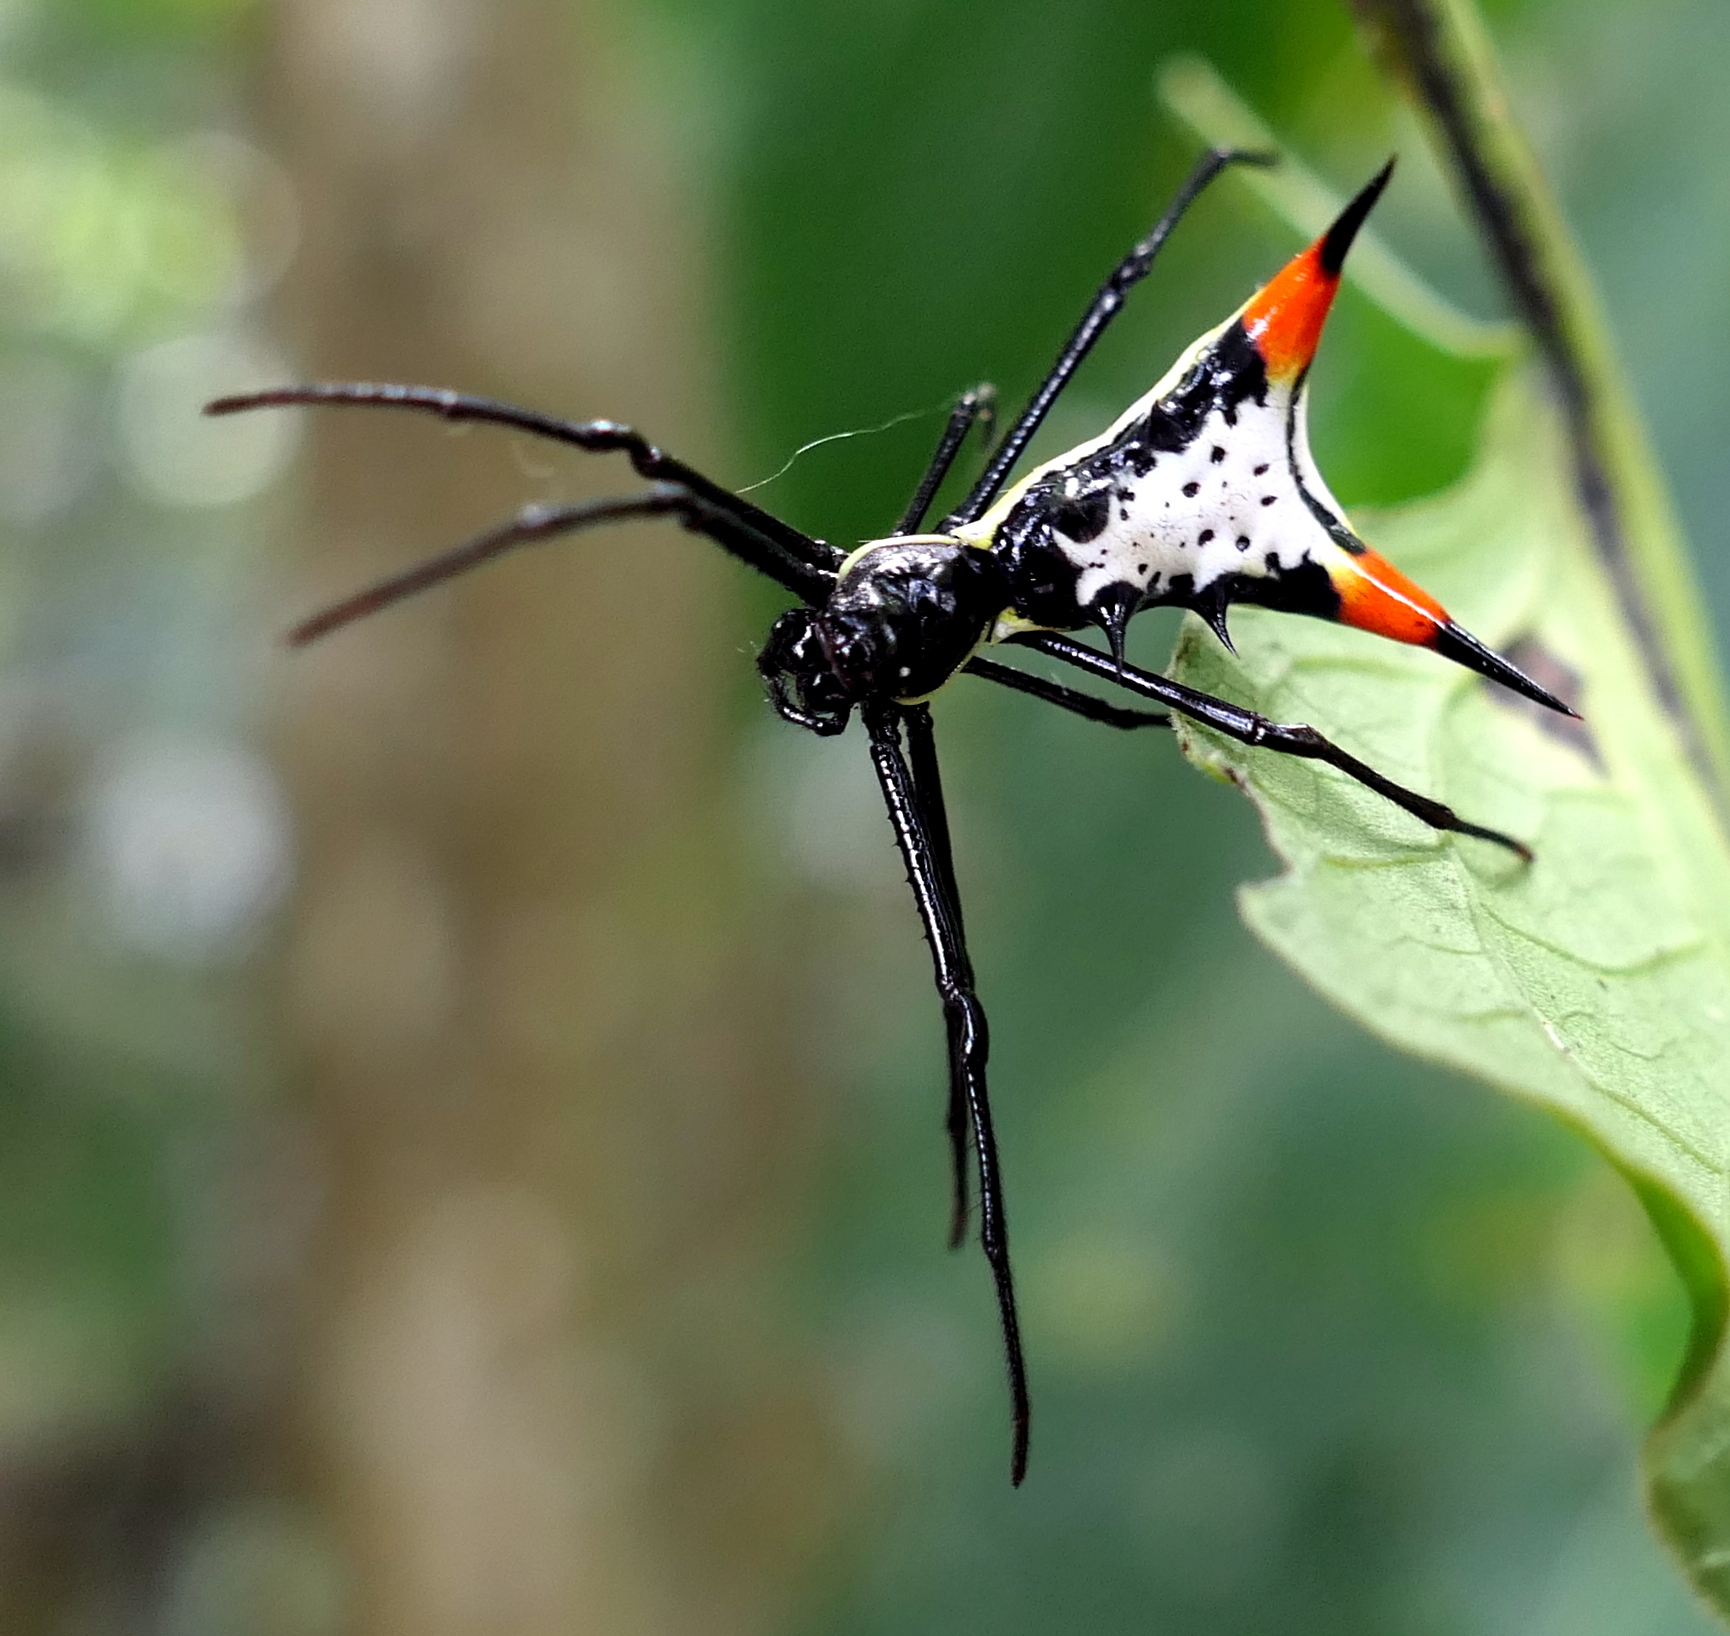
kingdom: Animalia
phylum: Arthropoda
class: Arachnida
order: Araneae
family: Araneidae
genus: Micrathena
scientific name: Micrathena schreibersi
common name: Orb weavers
